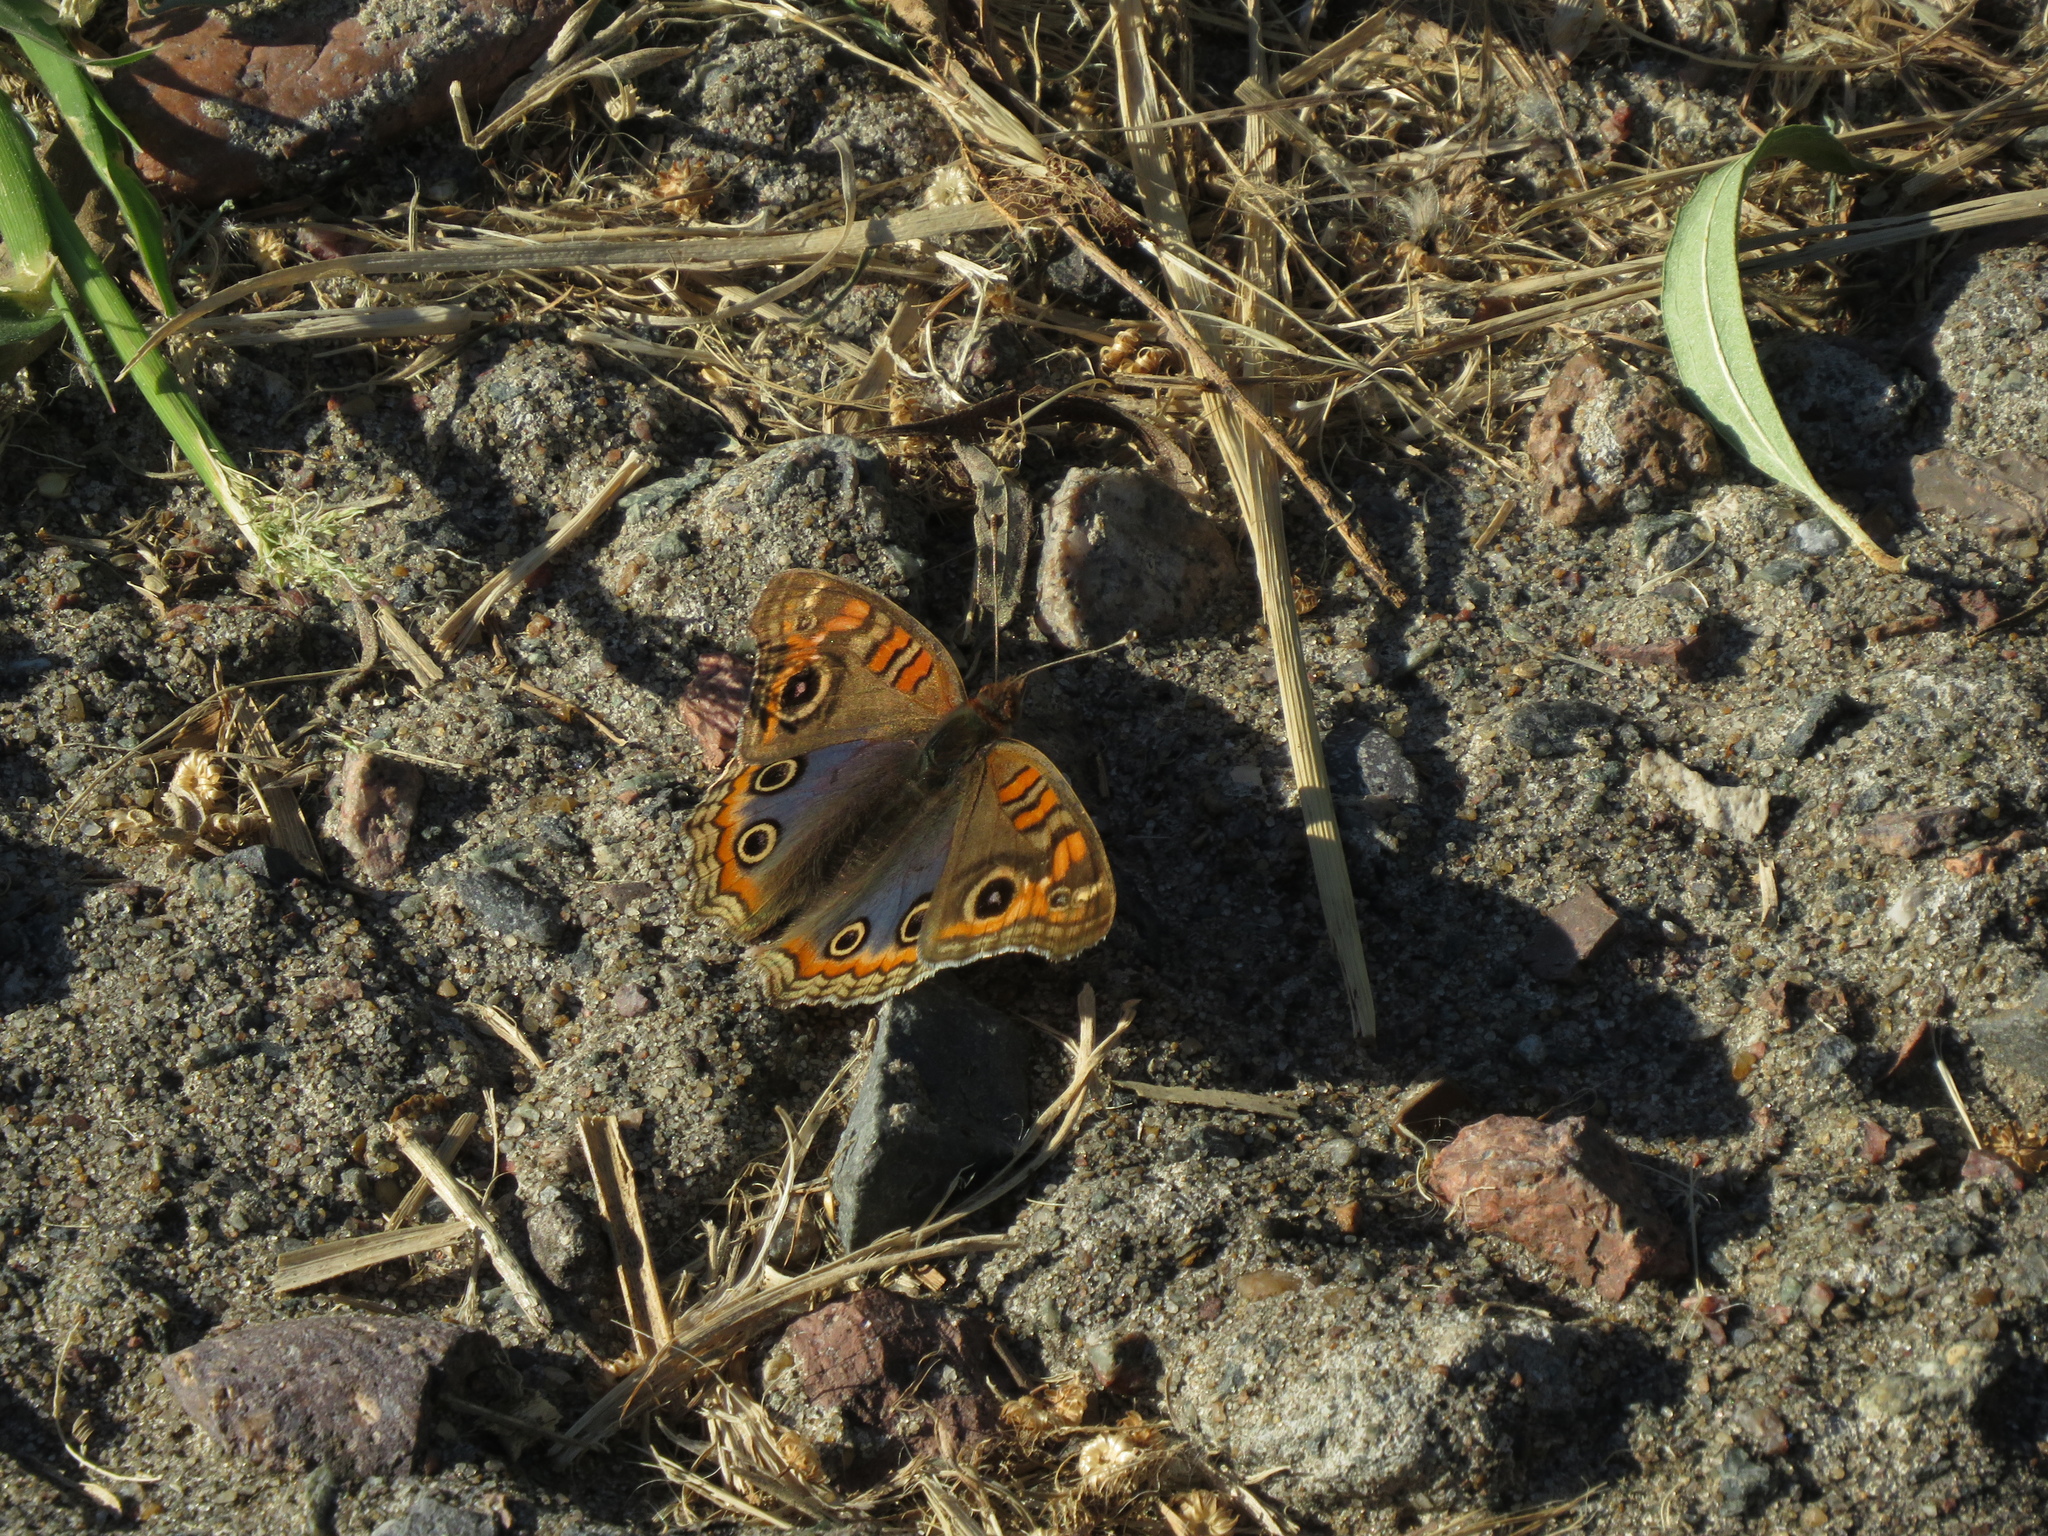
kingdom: Animalia
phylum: Arthropoda
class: Insecta
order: Lepidoptera
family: Nymphalidae
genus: Junonia
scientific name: Junonia lavinia
